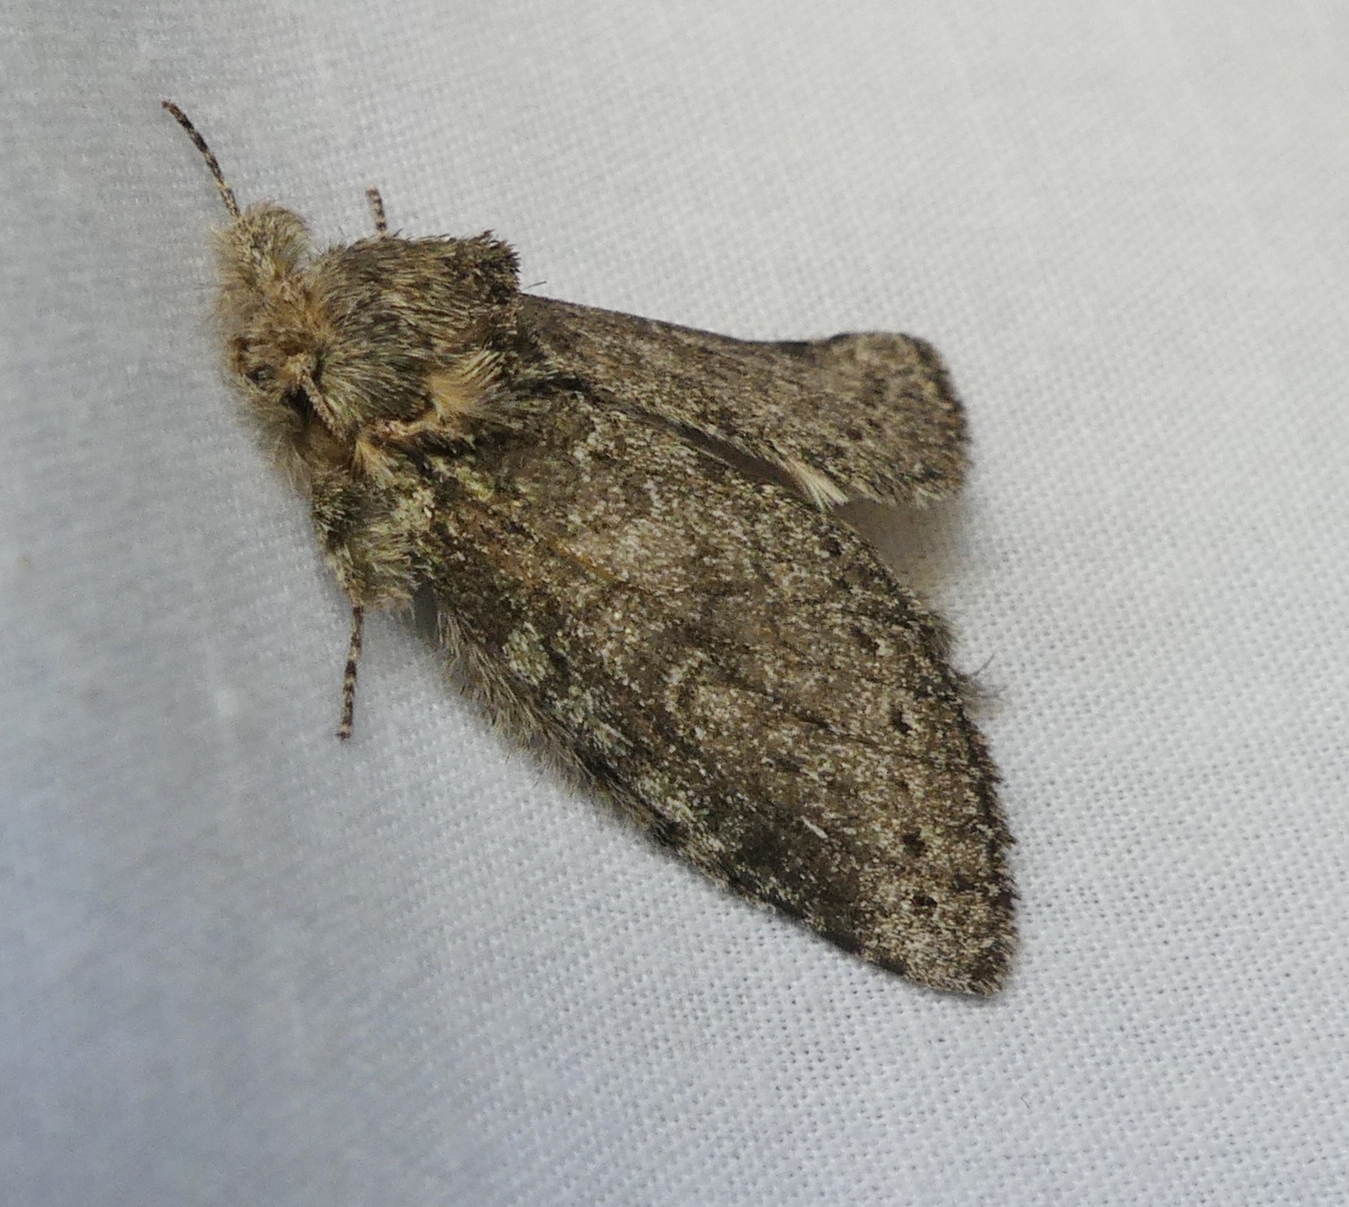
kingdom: Animalia
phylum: Arthropoda
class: Insecta
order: Lepidoptera
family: Notodontidae
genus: Disphragis
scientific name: Disphragis Cecrita guttivitta
